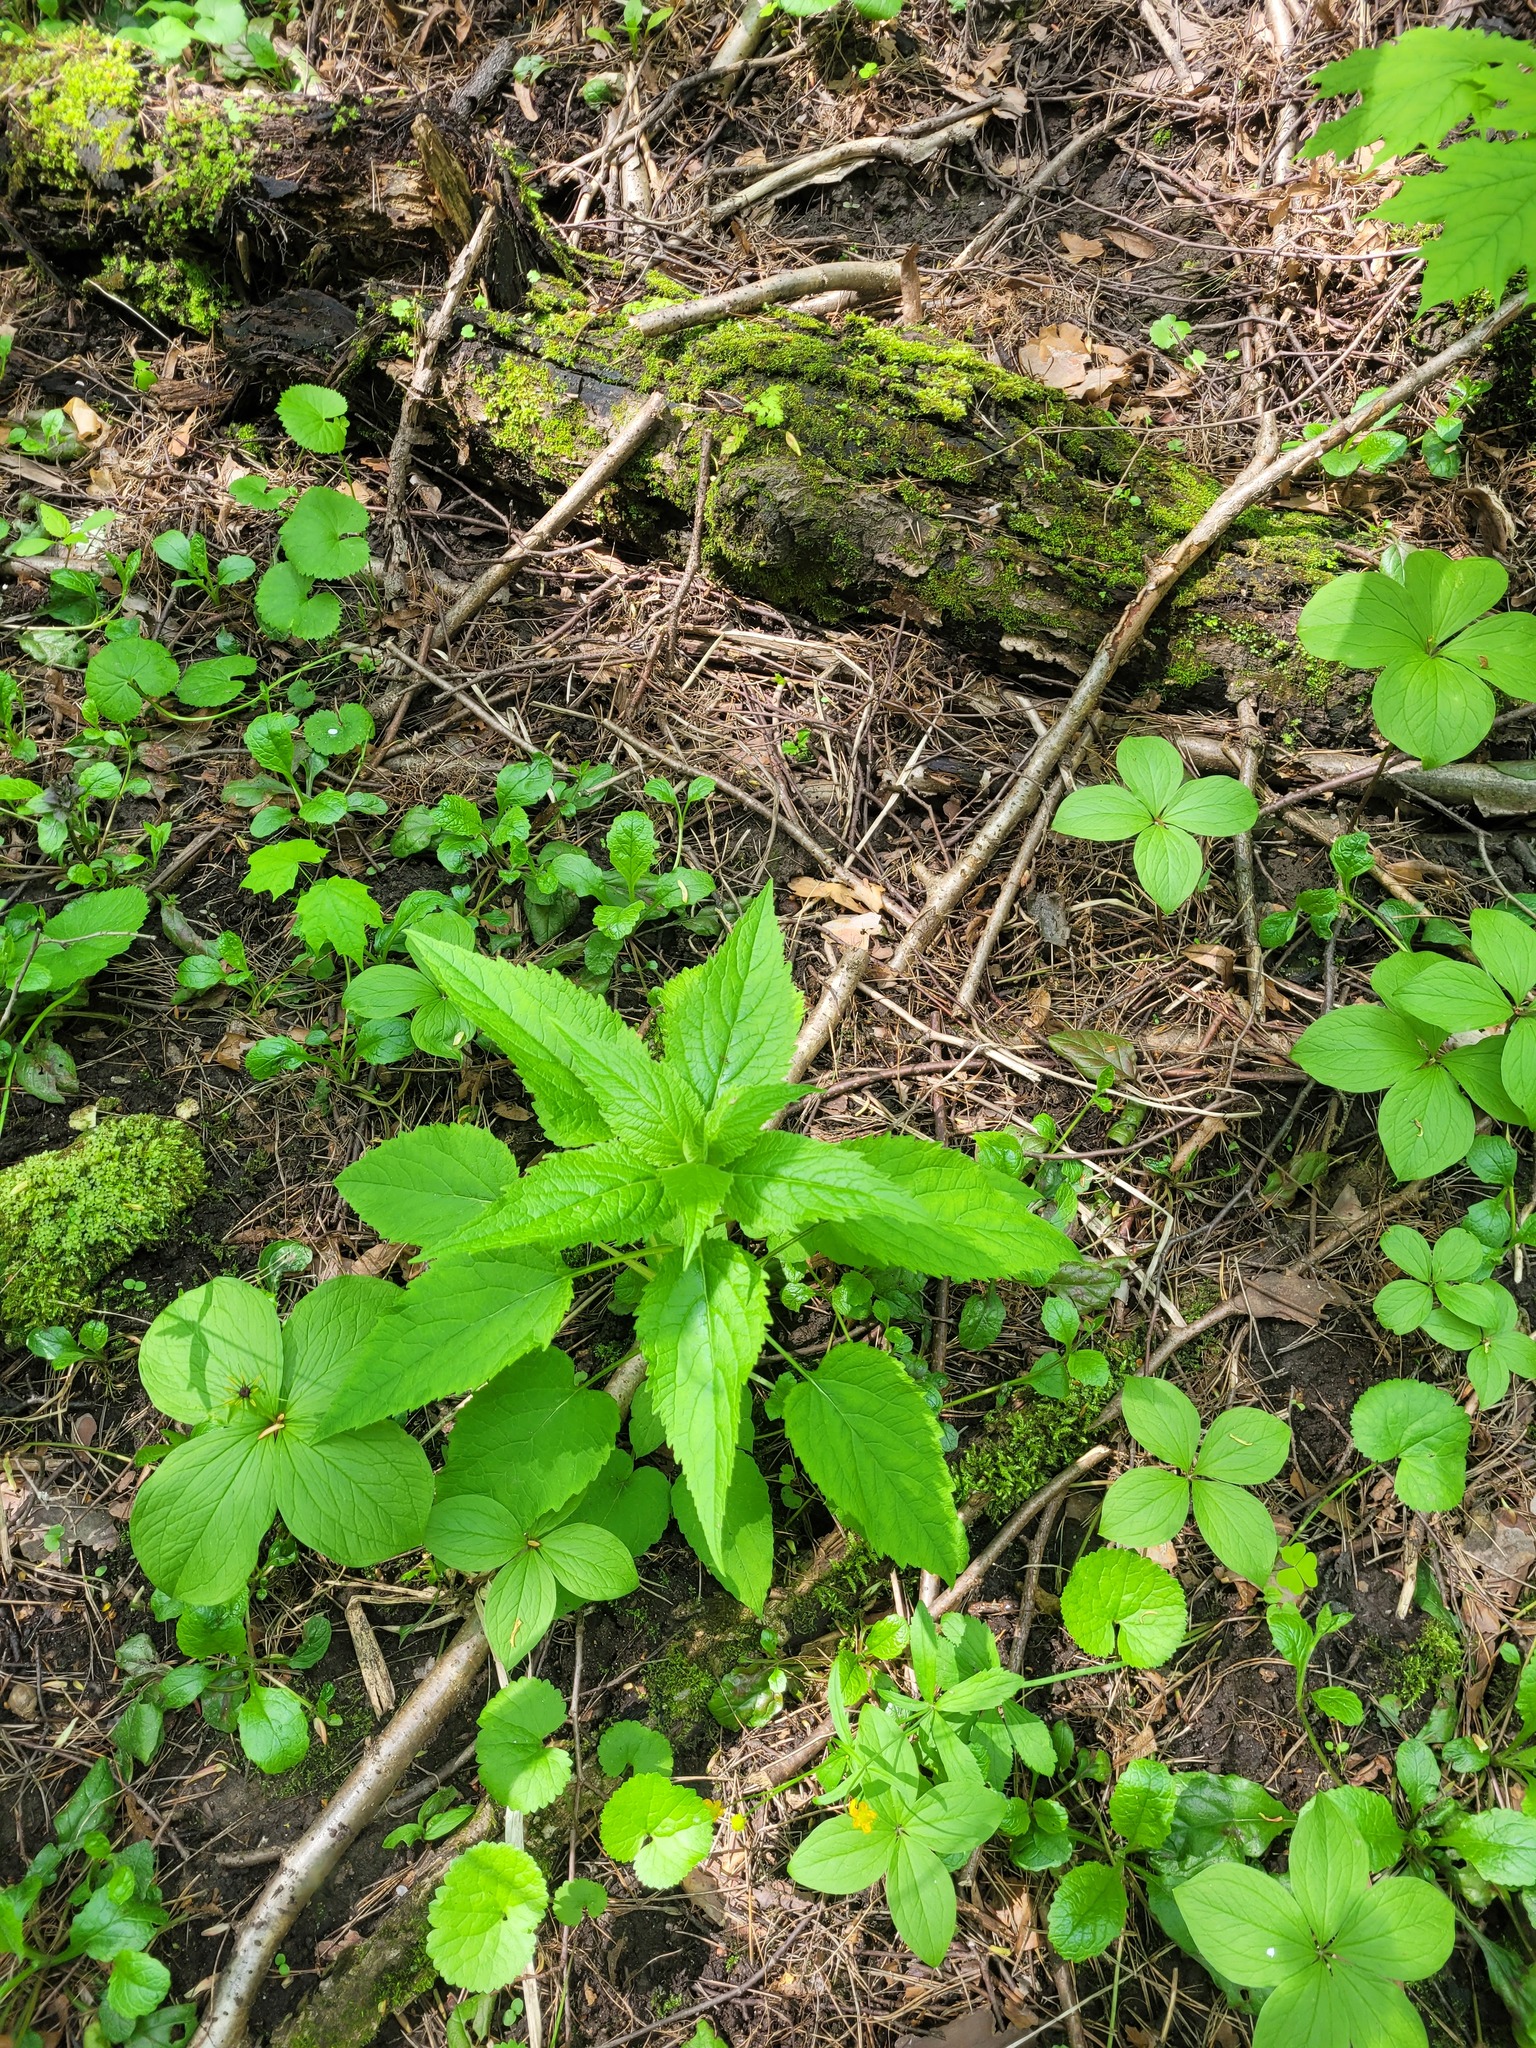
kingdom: Plantae
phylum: Tracheophyta
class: Magnoliopsida
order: Asterales
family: Campanulaceae
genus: Campanula
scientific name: Campanula latifolia
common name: Giant bellflower
